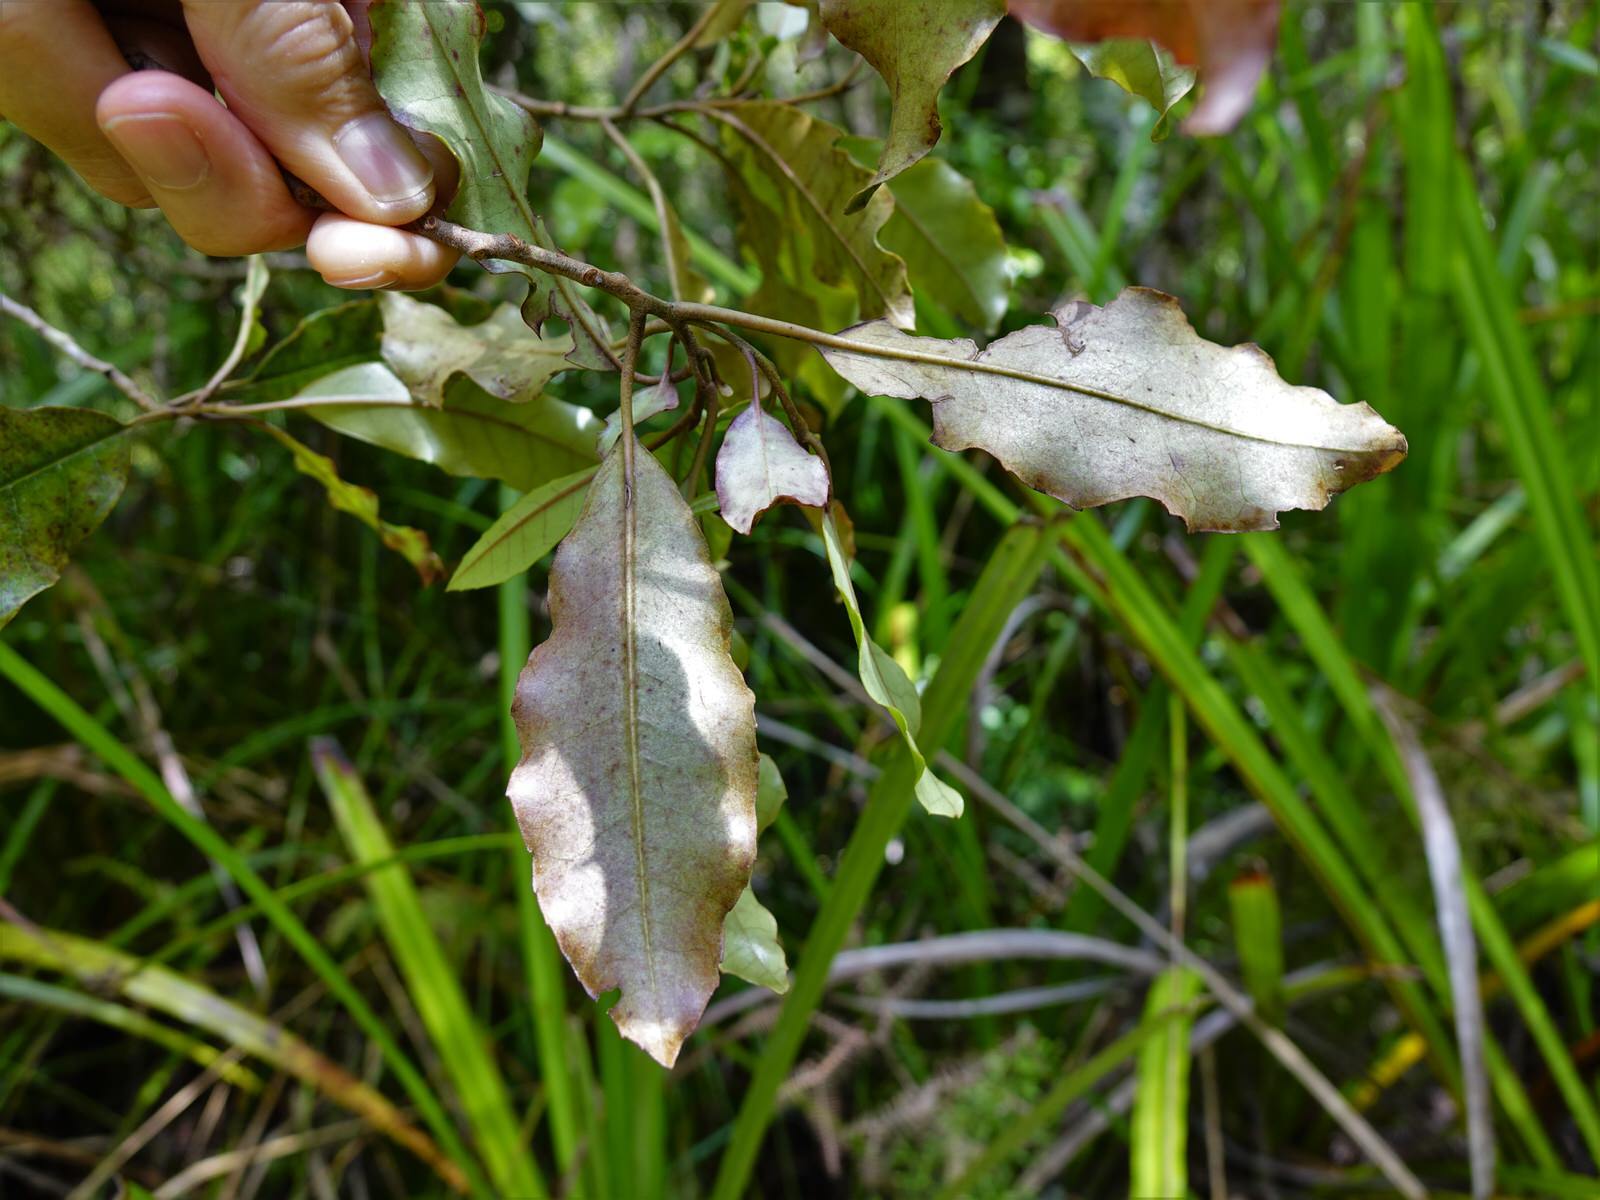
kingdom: Plantae
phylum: Tracheophyta
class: Magnoliopsida
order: Paracryphiales
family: Paracryphiaceae
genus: Quintinia
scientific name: Quintinia serrata
